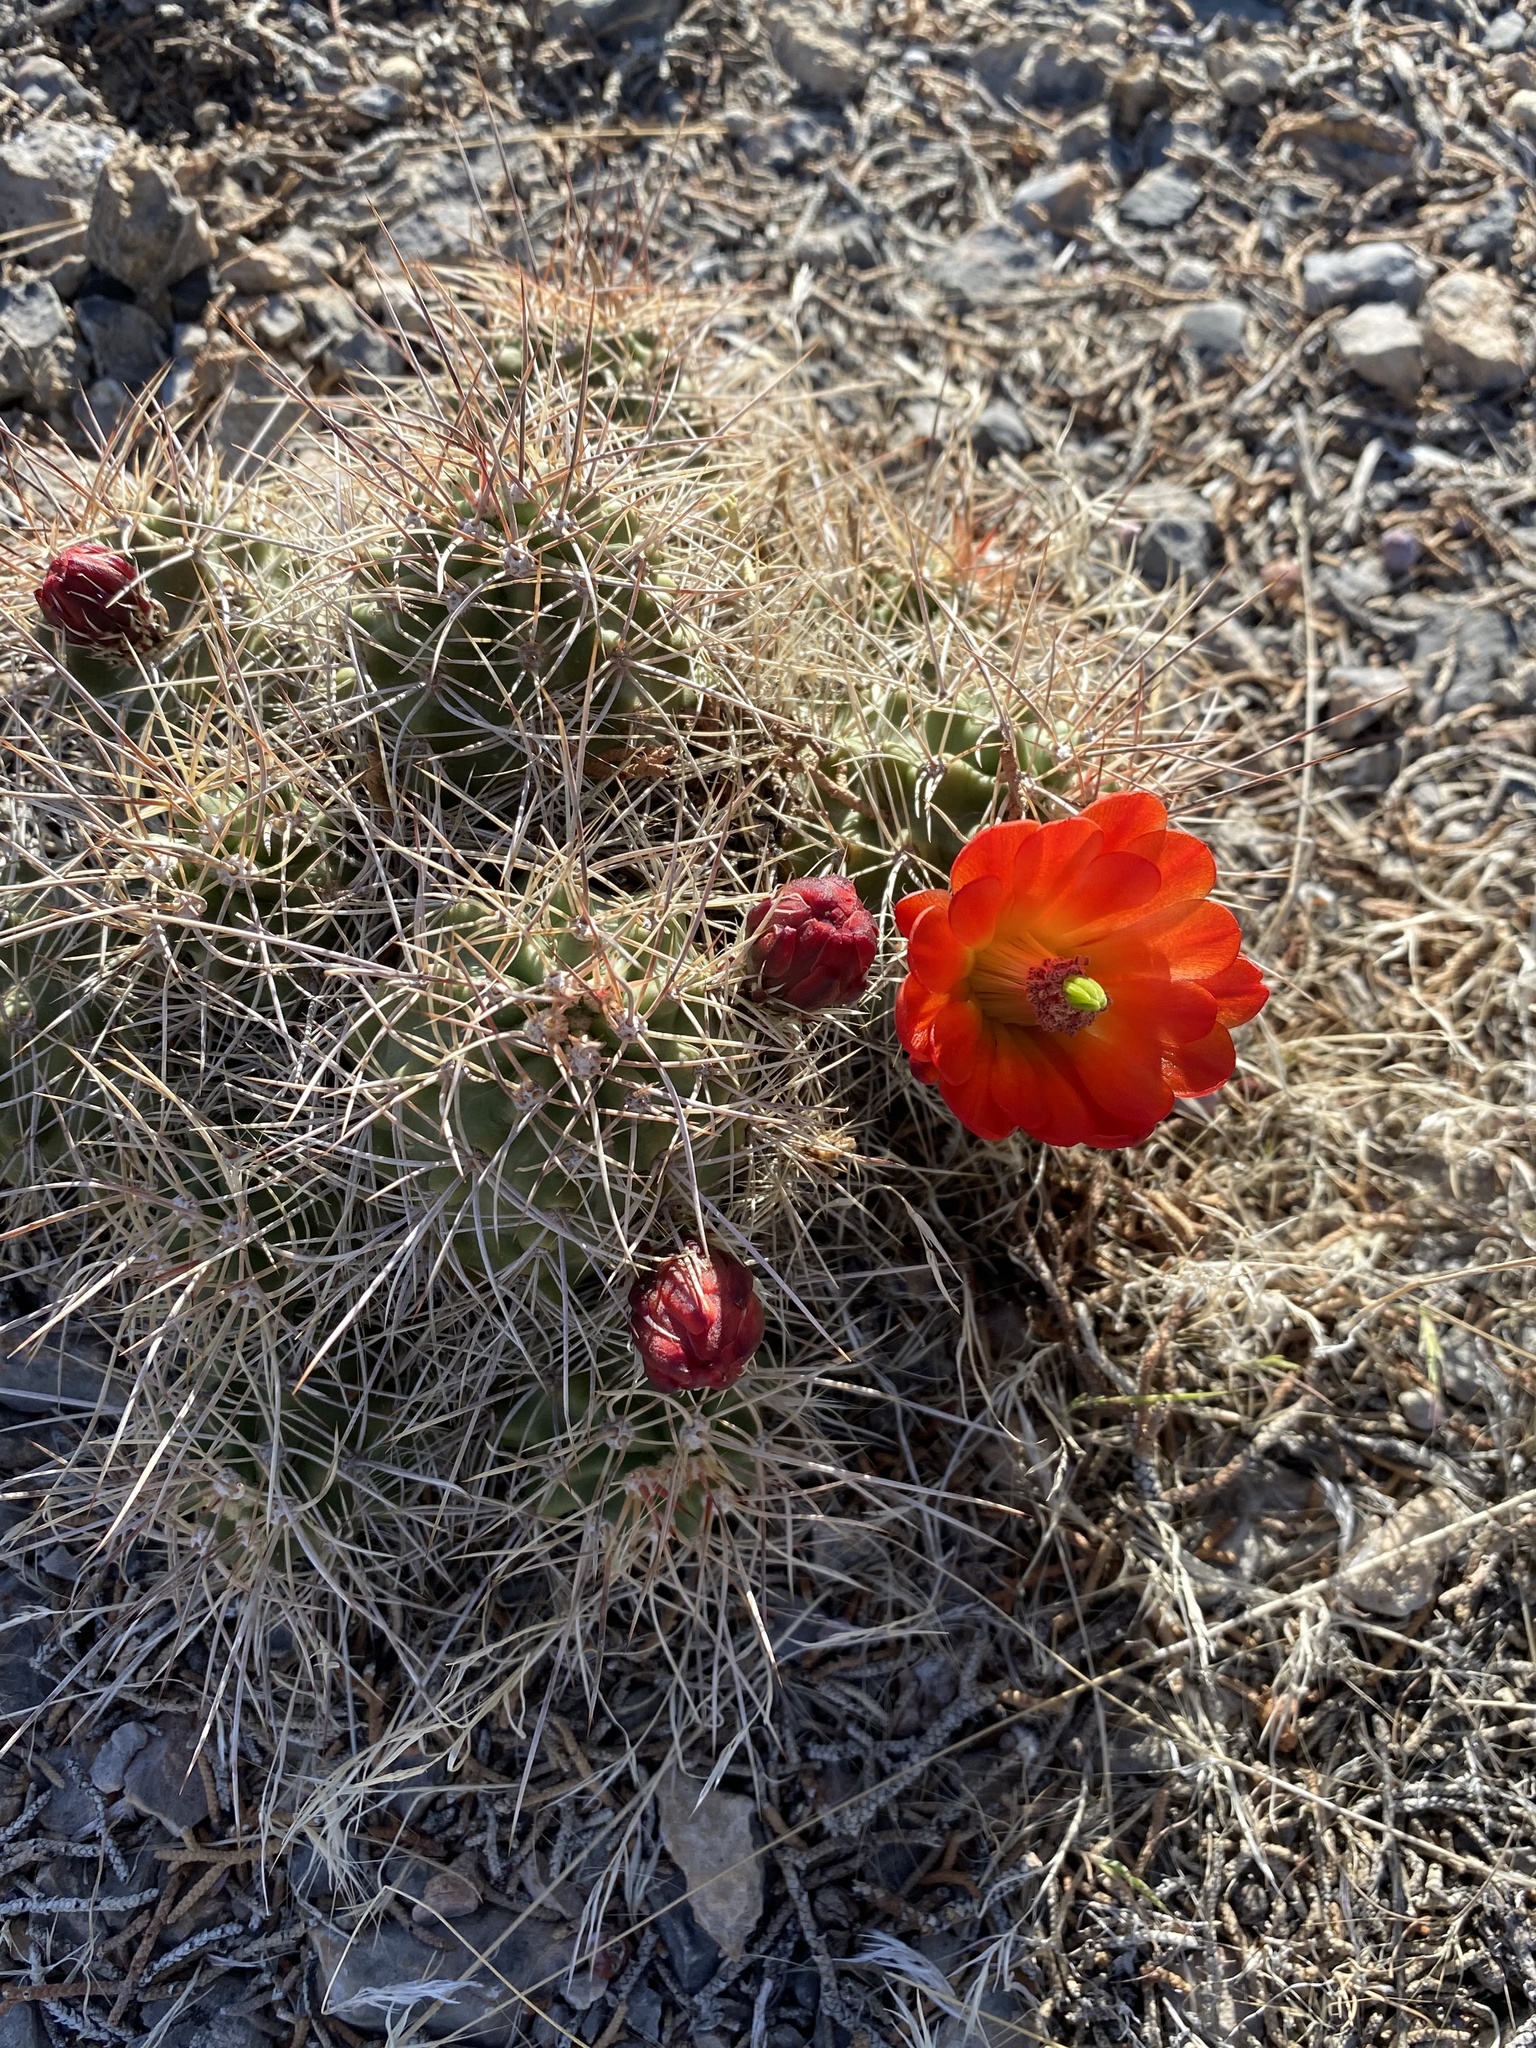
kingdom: Plantae
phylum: Tracheophyta
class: Magnoliopsida
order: Caryophyllales
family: Cactaceae
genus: Echinocereus
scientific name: Echinocereus triglochidiatus
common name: Claretcup hedgehog
